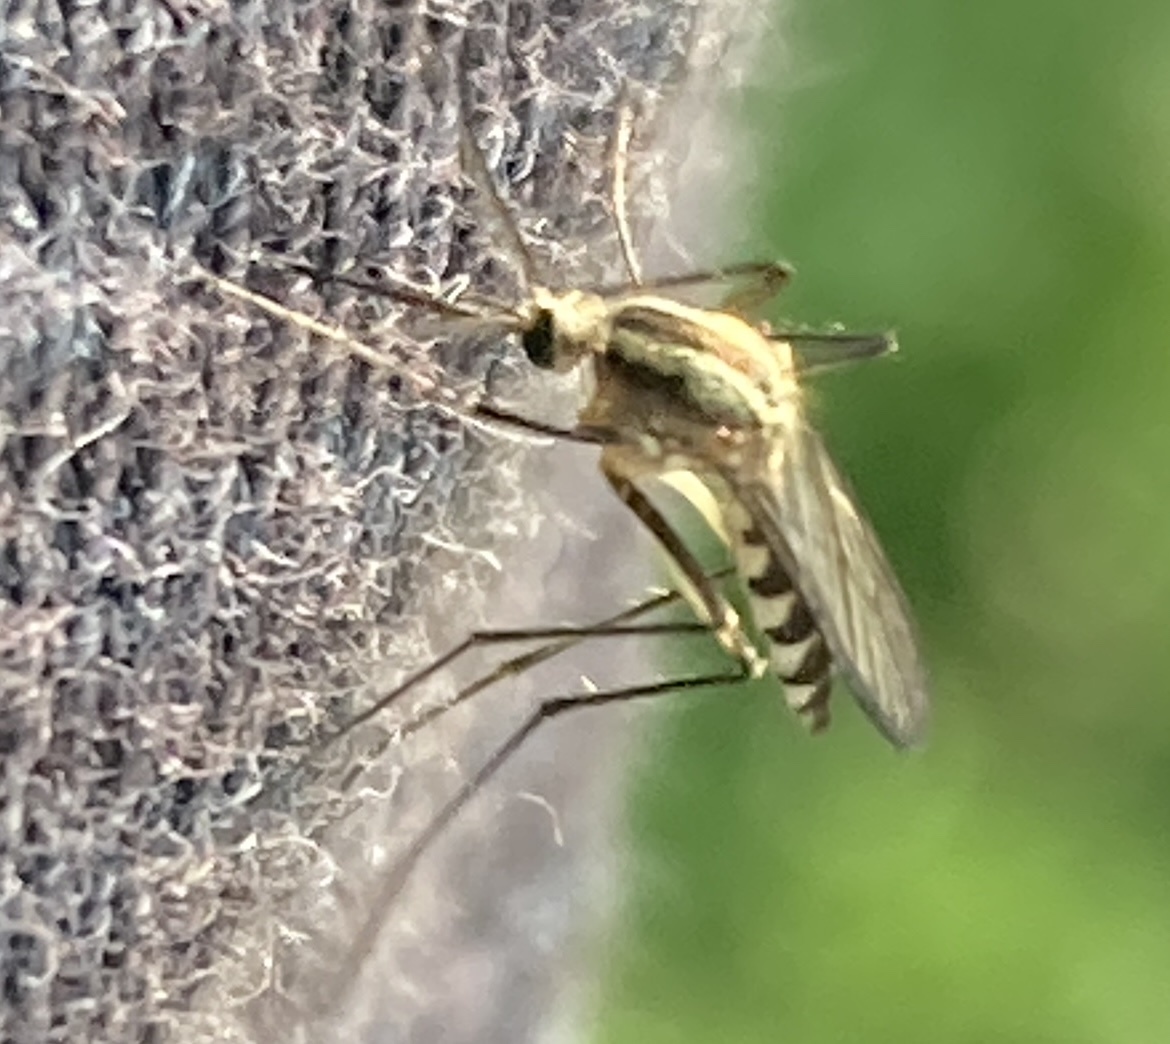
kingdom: Animalia
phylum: Arthropoda
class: Insecta
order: Diptera
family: Culicidae
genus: Aedes
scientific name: Aedes trivittatus
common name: Plains floodwater mosquito
